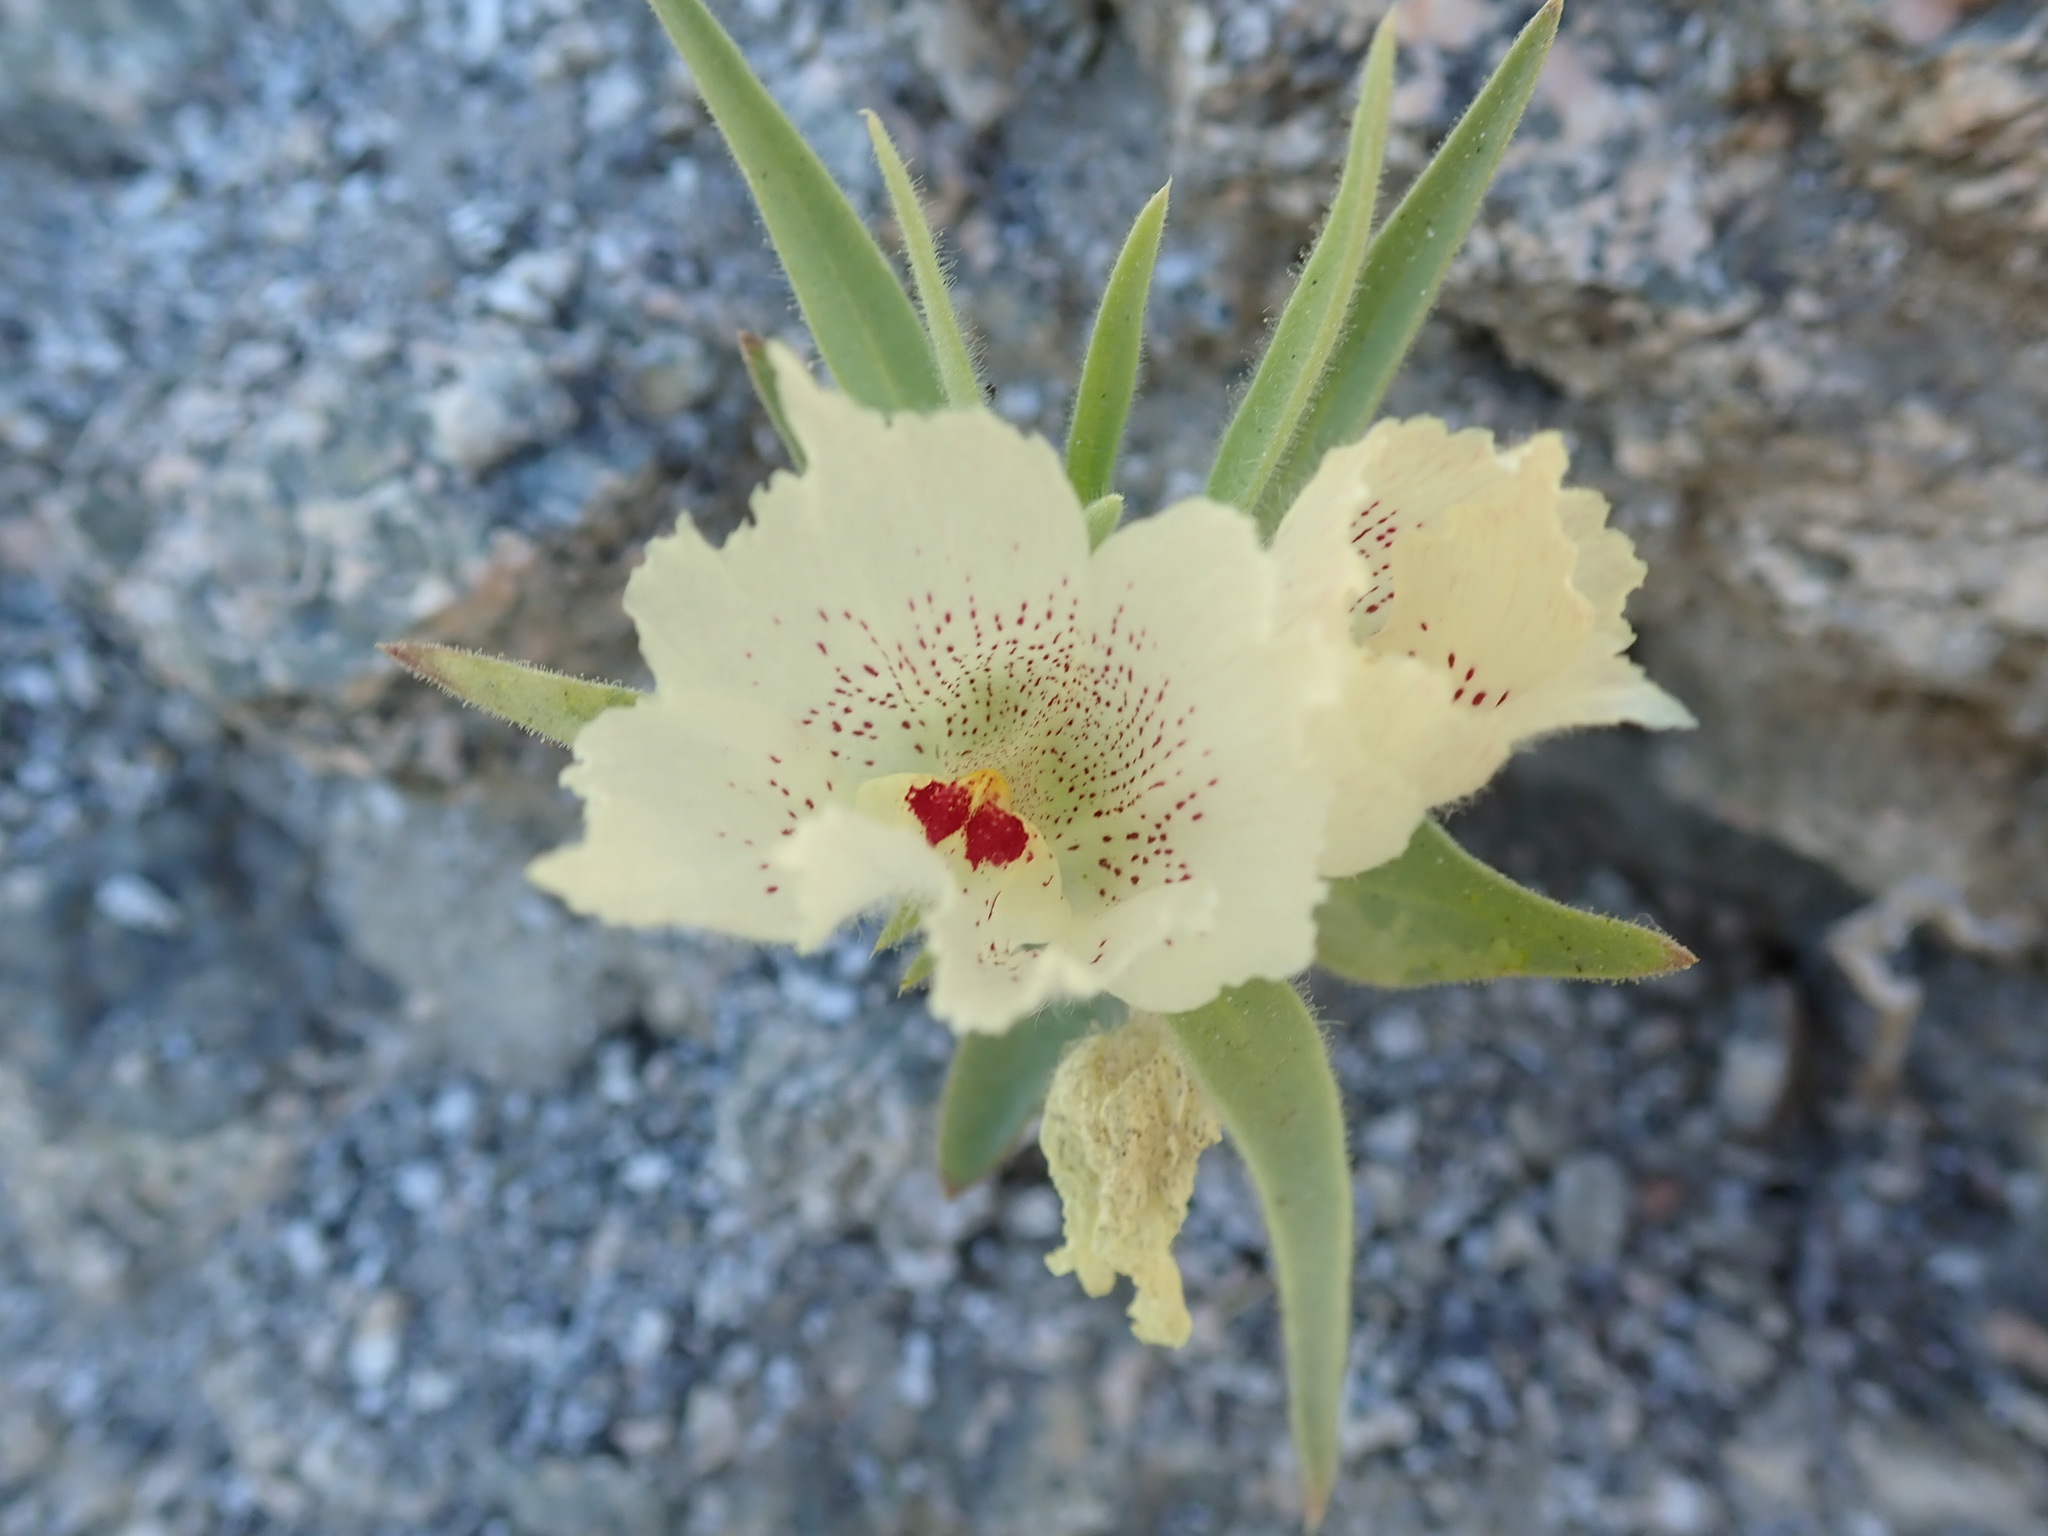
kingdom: Plantae
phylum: Tracheophyta
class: Magnoliopsida
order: Lamiales
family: Plantaginaceae
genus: Mohavea
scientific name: Mohavea confertiflora
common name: Ghost flower
